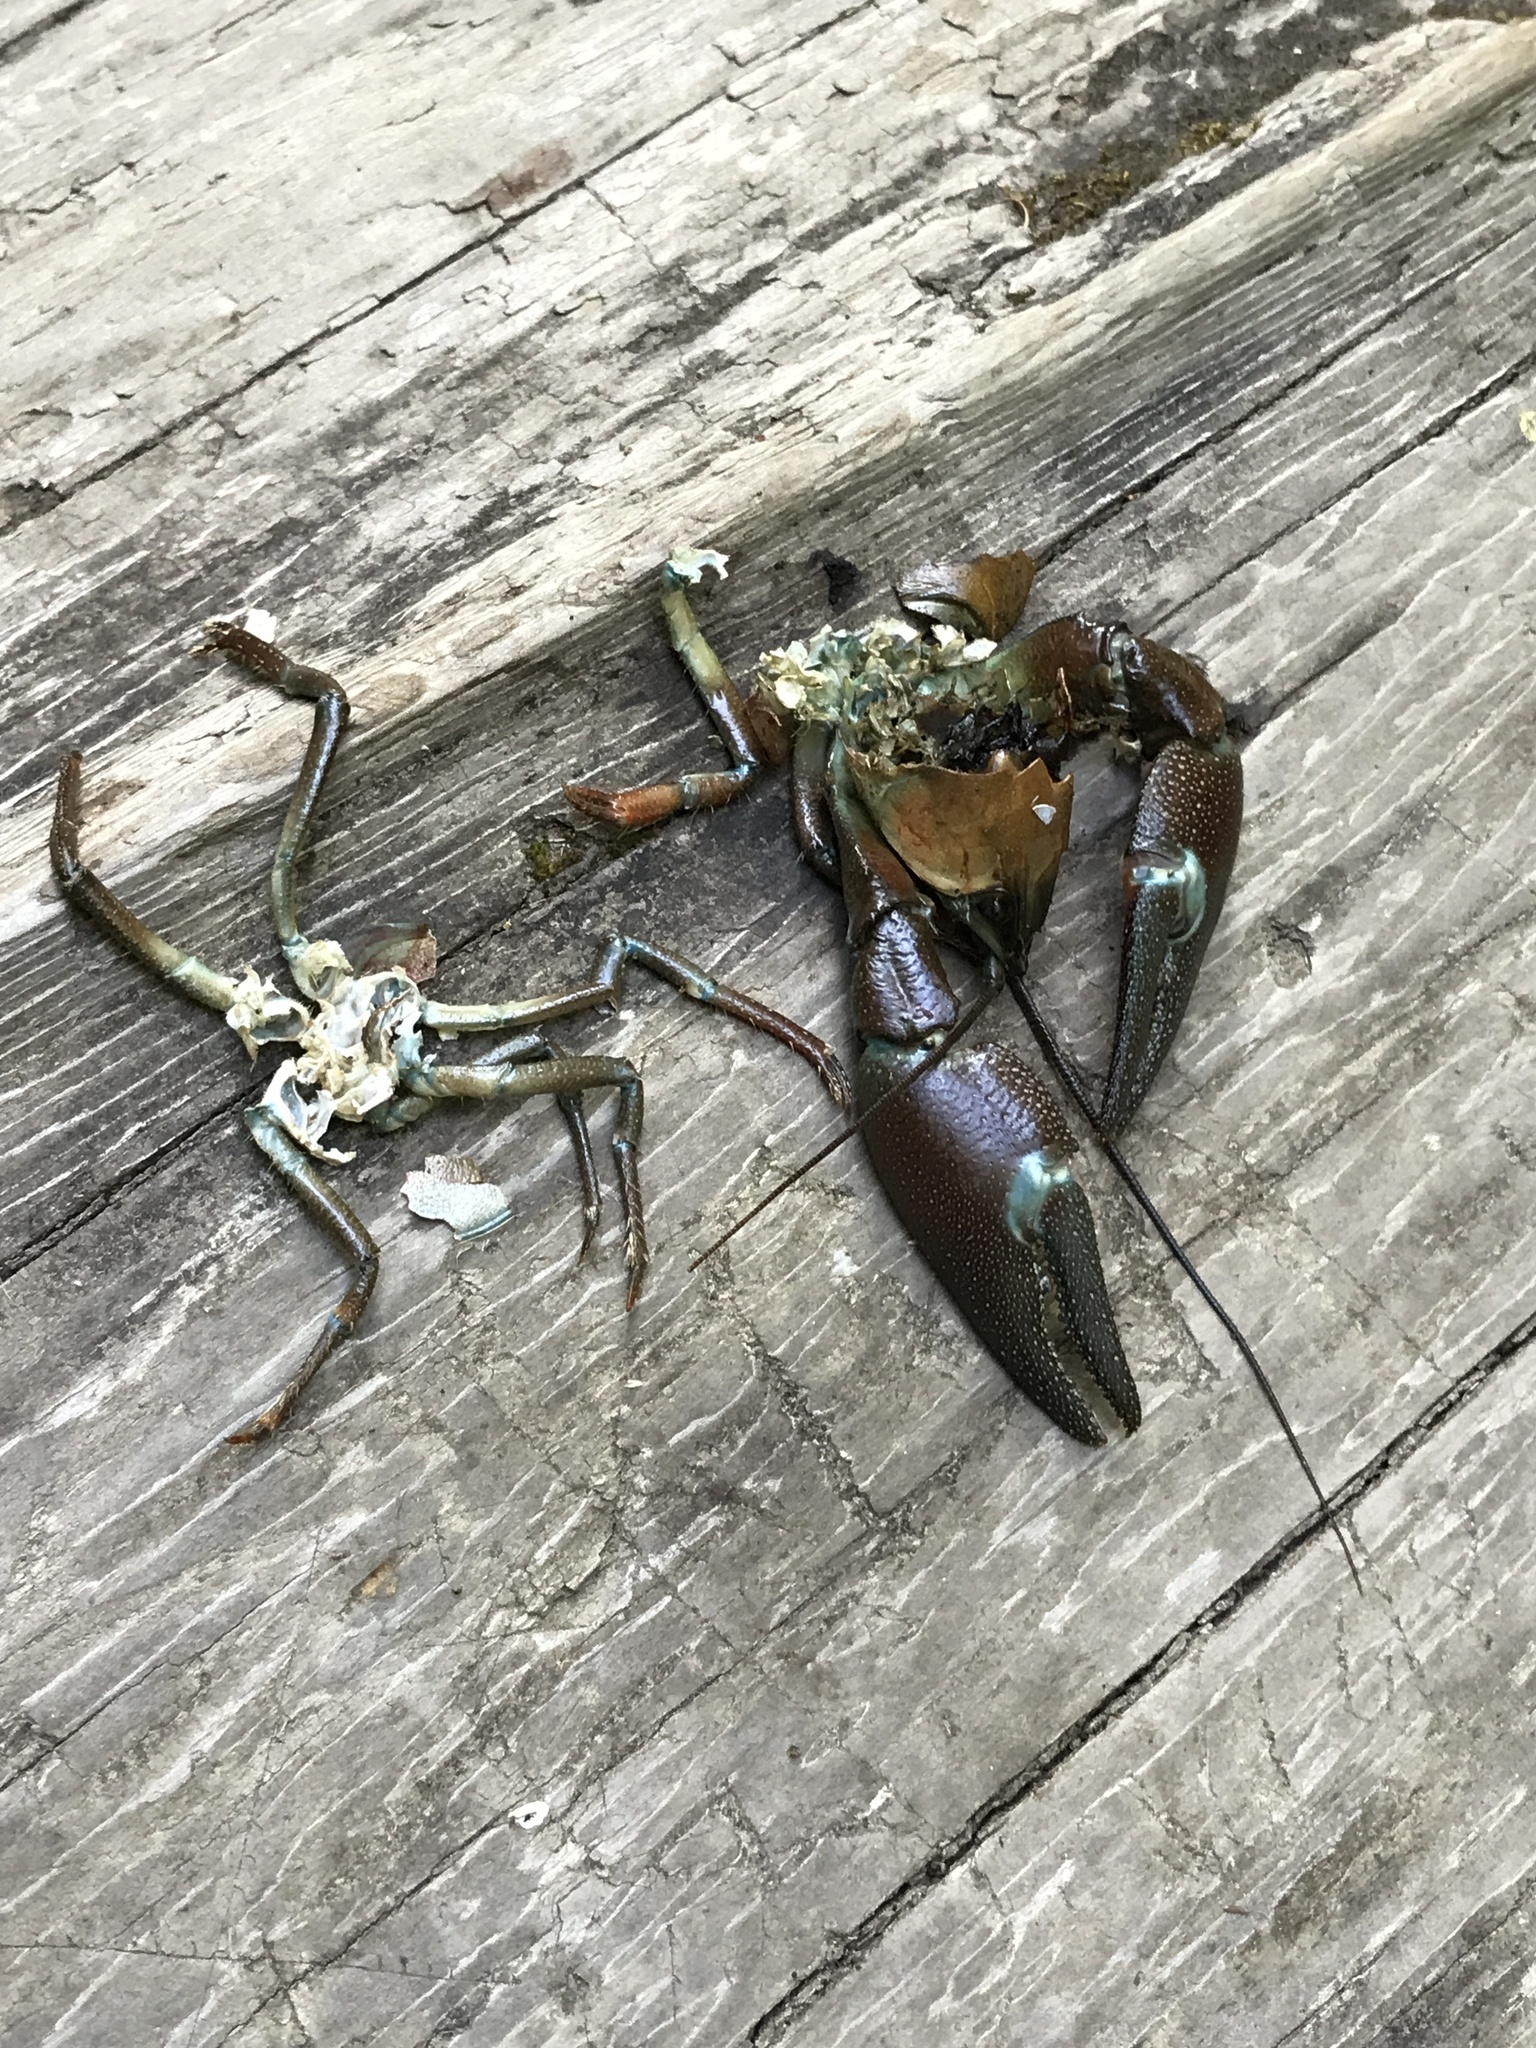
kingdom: Animalia
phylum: Arthropoda
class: Malacostraca
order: Decapoda
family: Astacidae
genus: Pacifastacus
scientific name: Pacifastacus leniusculus
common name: Signal crayfish
